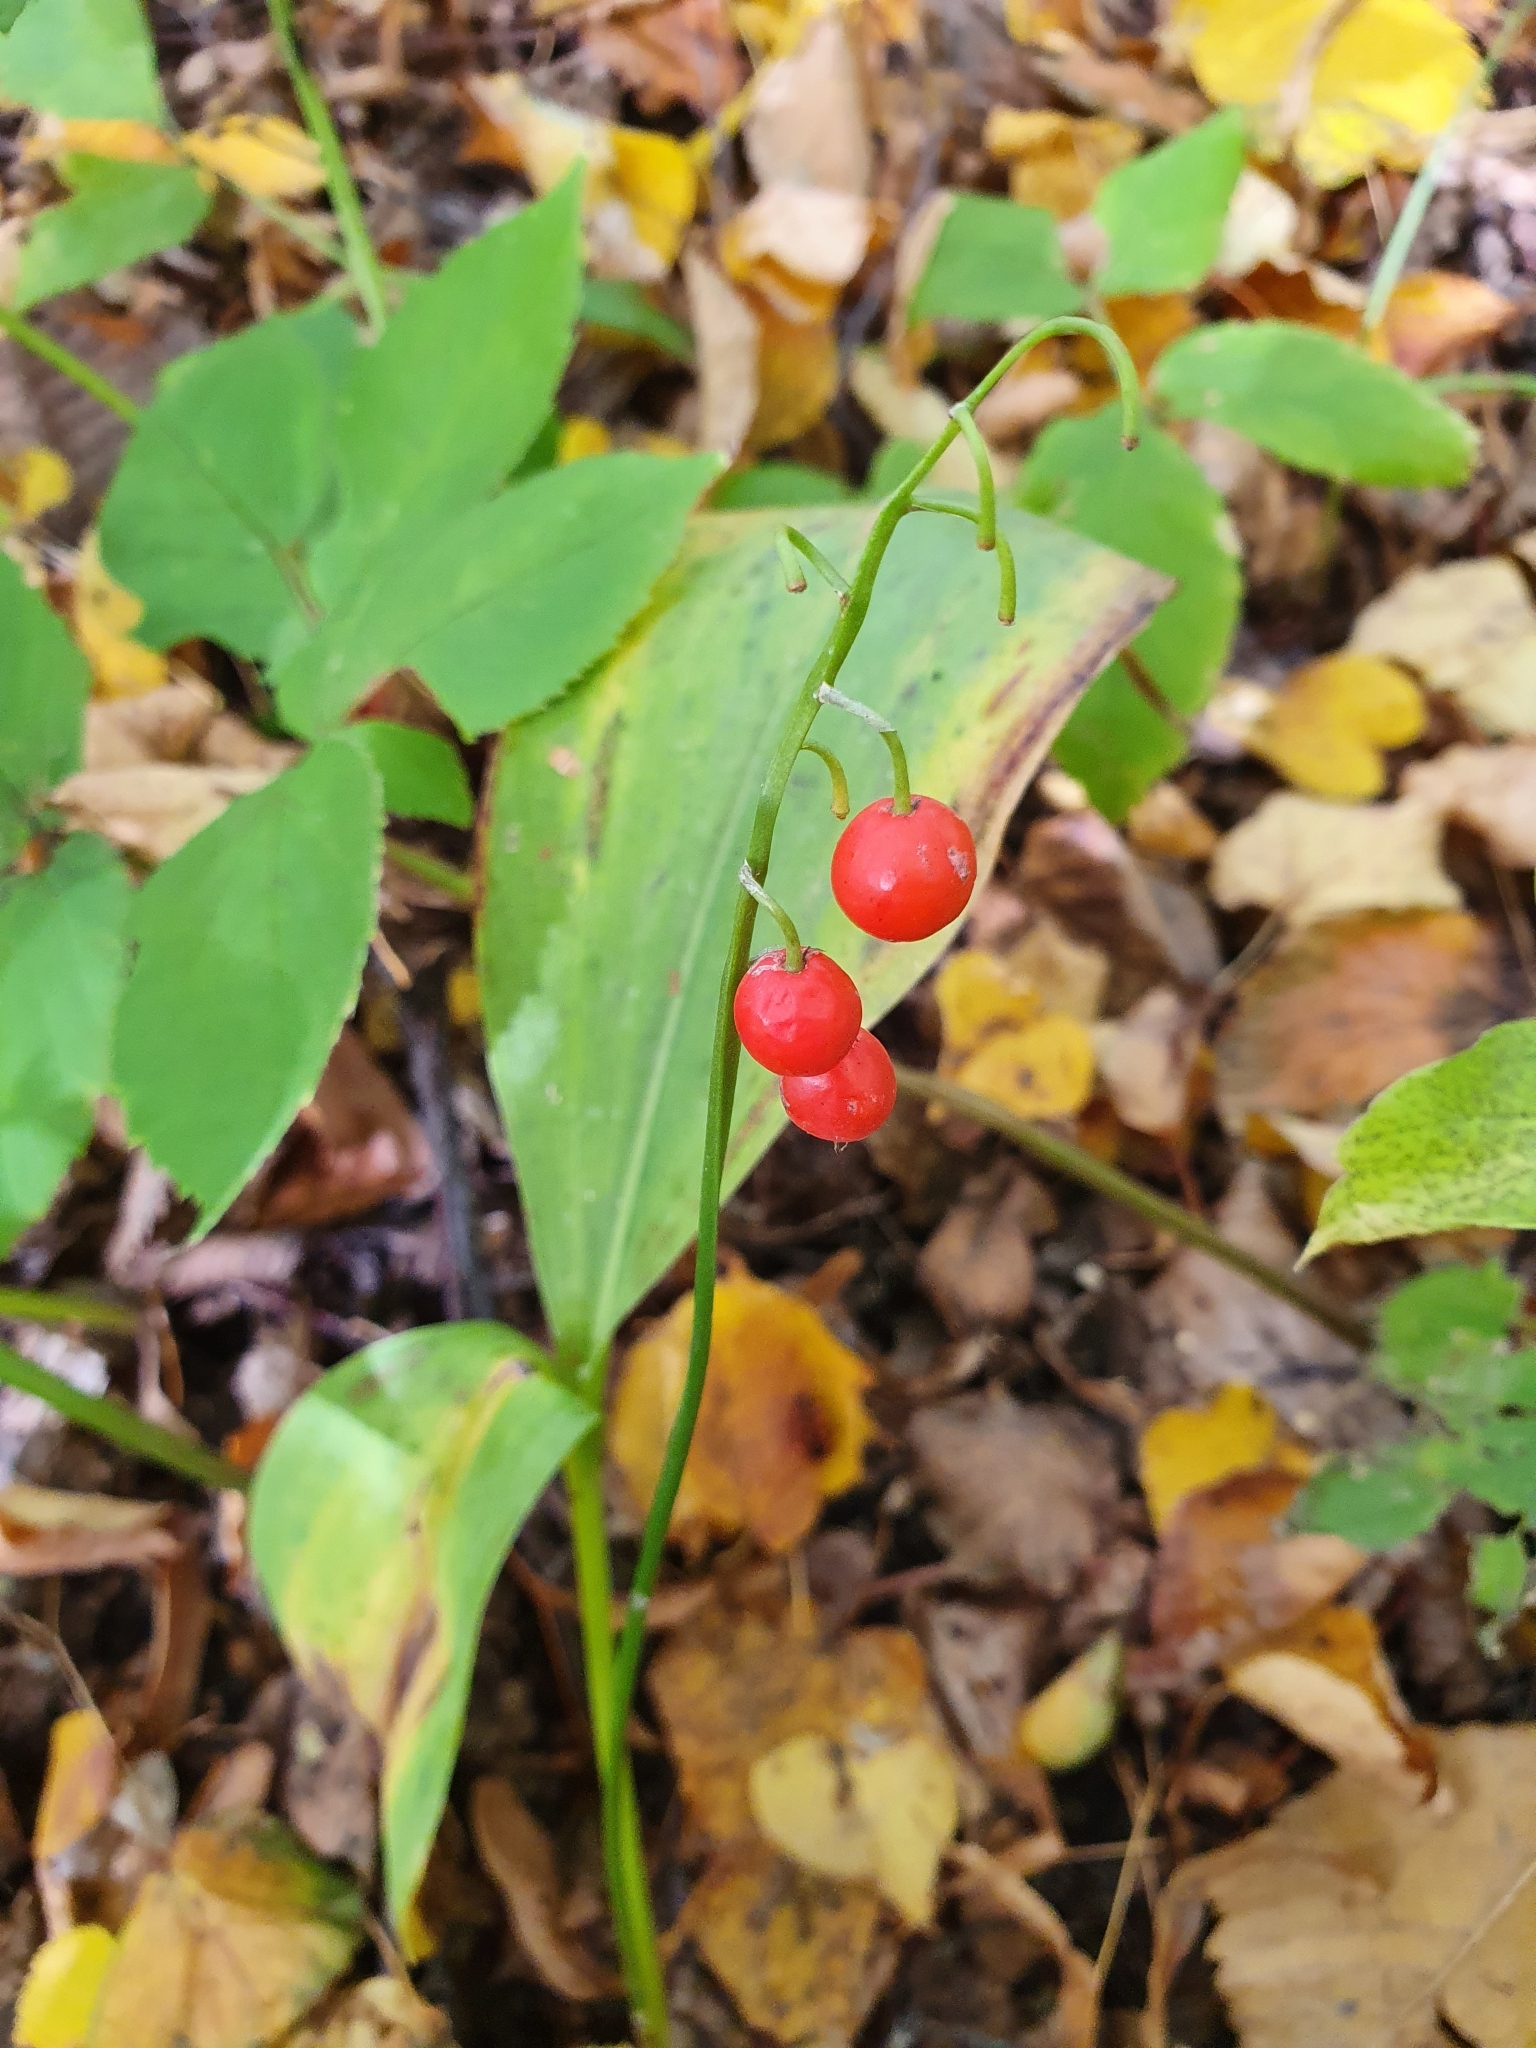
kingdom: Plantae
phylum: Tracheophyta
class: Liliopsida
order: Asparagales
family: Asparagaceae
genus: Convallaria
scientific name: Convallaria majalis
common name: Lily-of-the-valley
